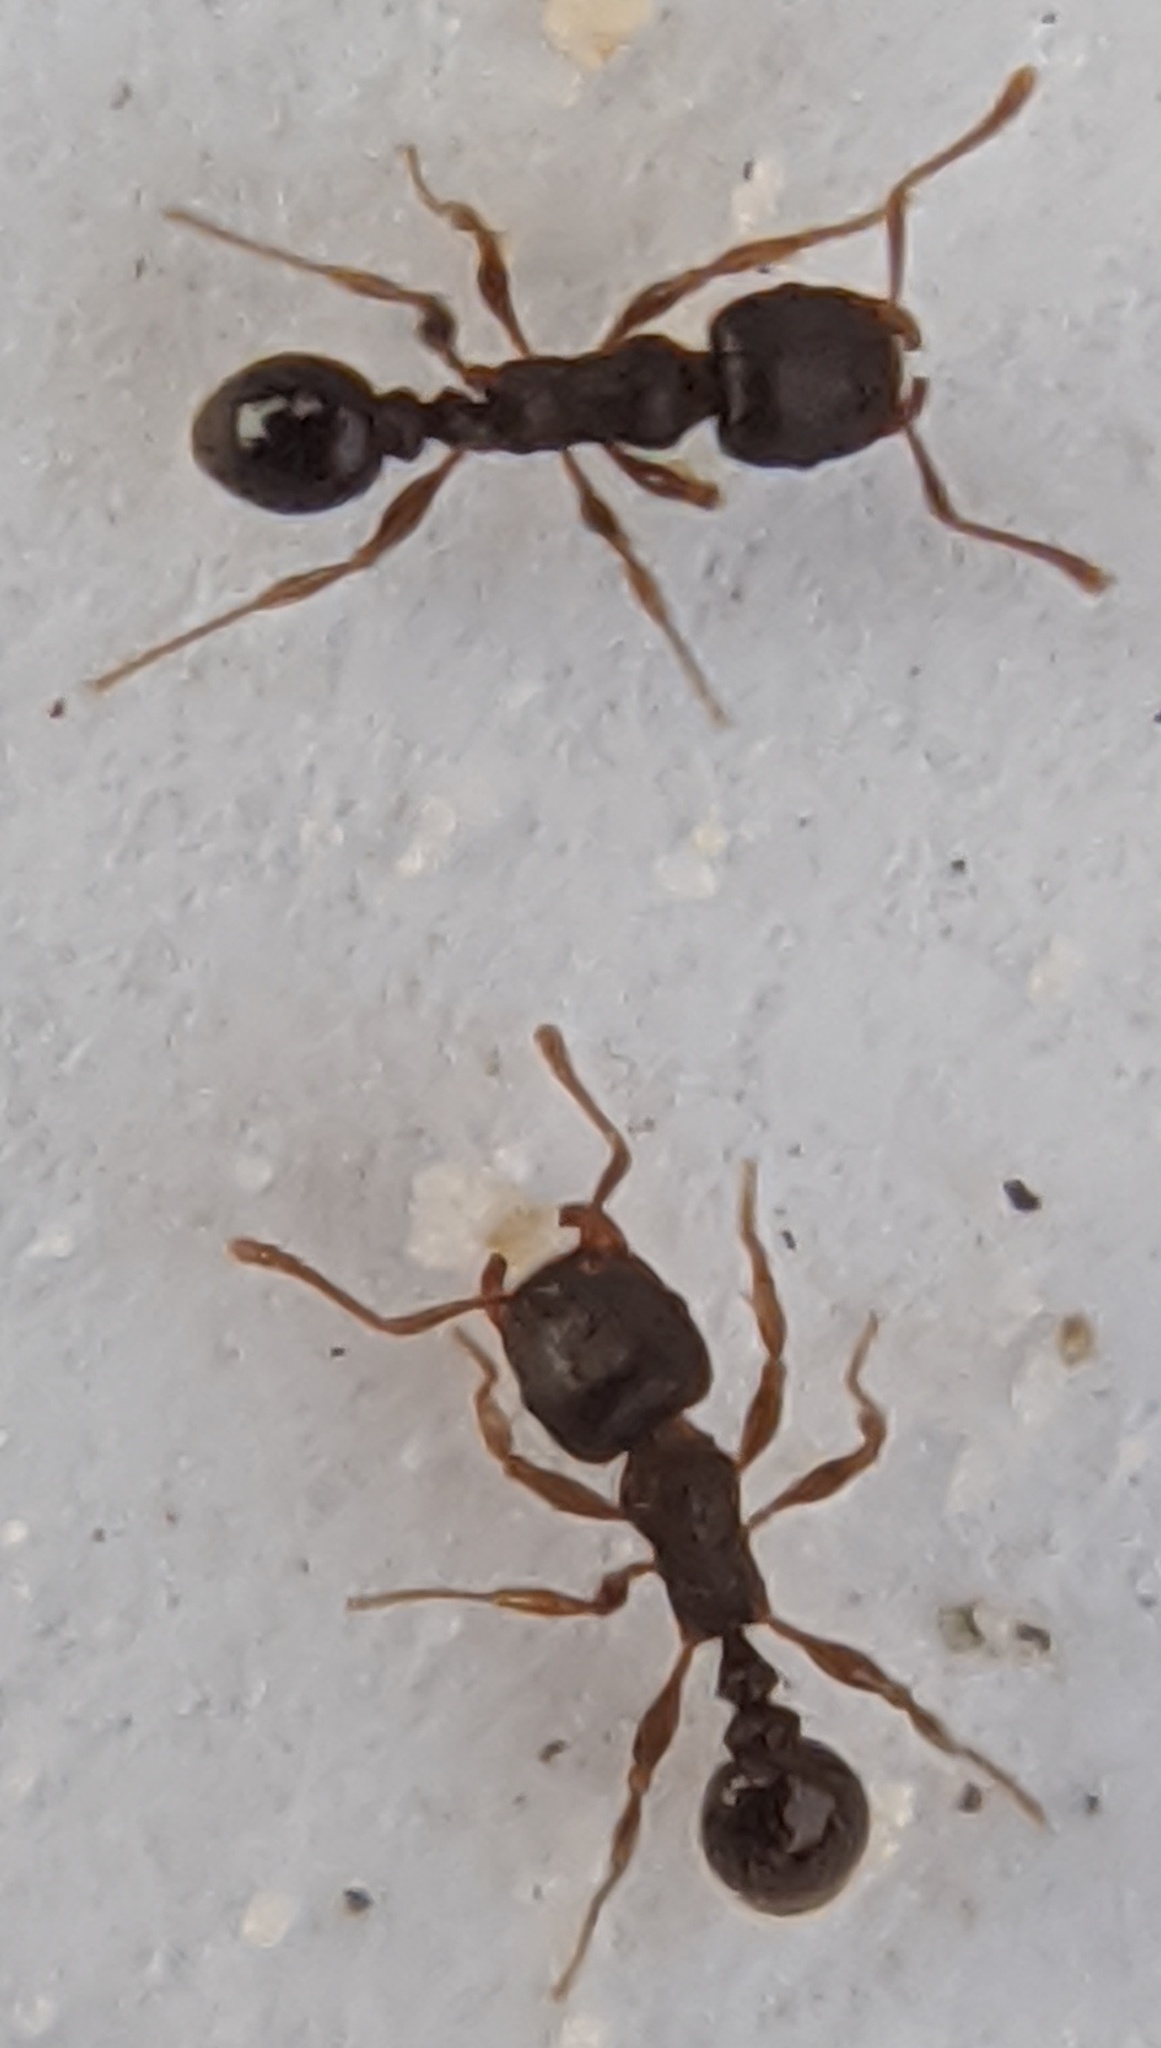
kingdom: Animalia
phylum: Arthropoda
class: Insecta
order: Hymenoptera
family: Formicidae
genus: Tetramorium
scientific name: Tetramorium immigrans
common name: Pavement ant
